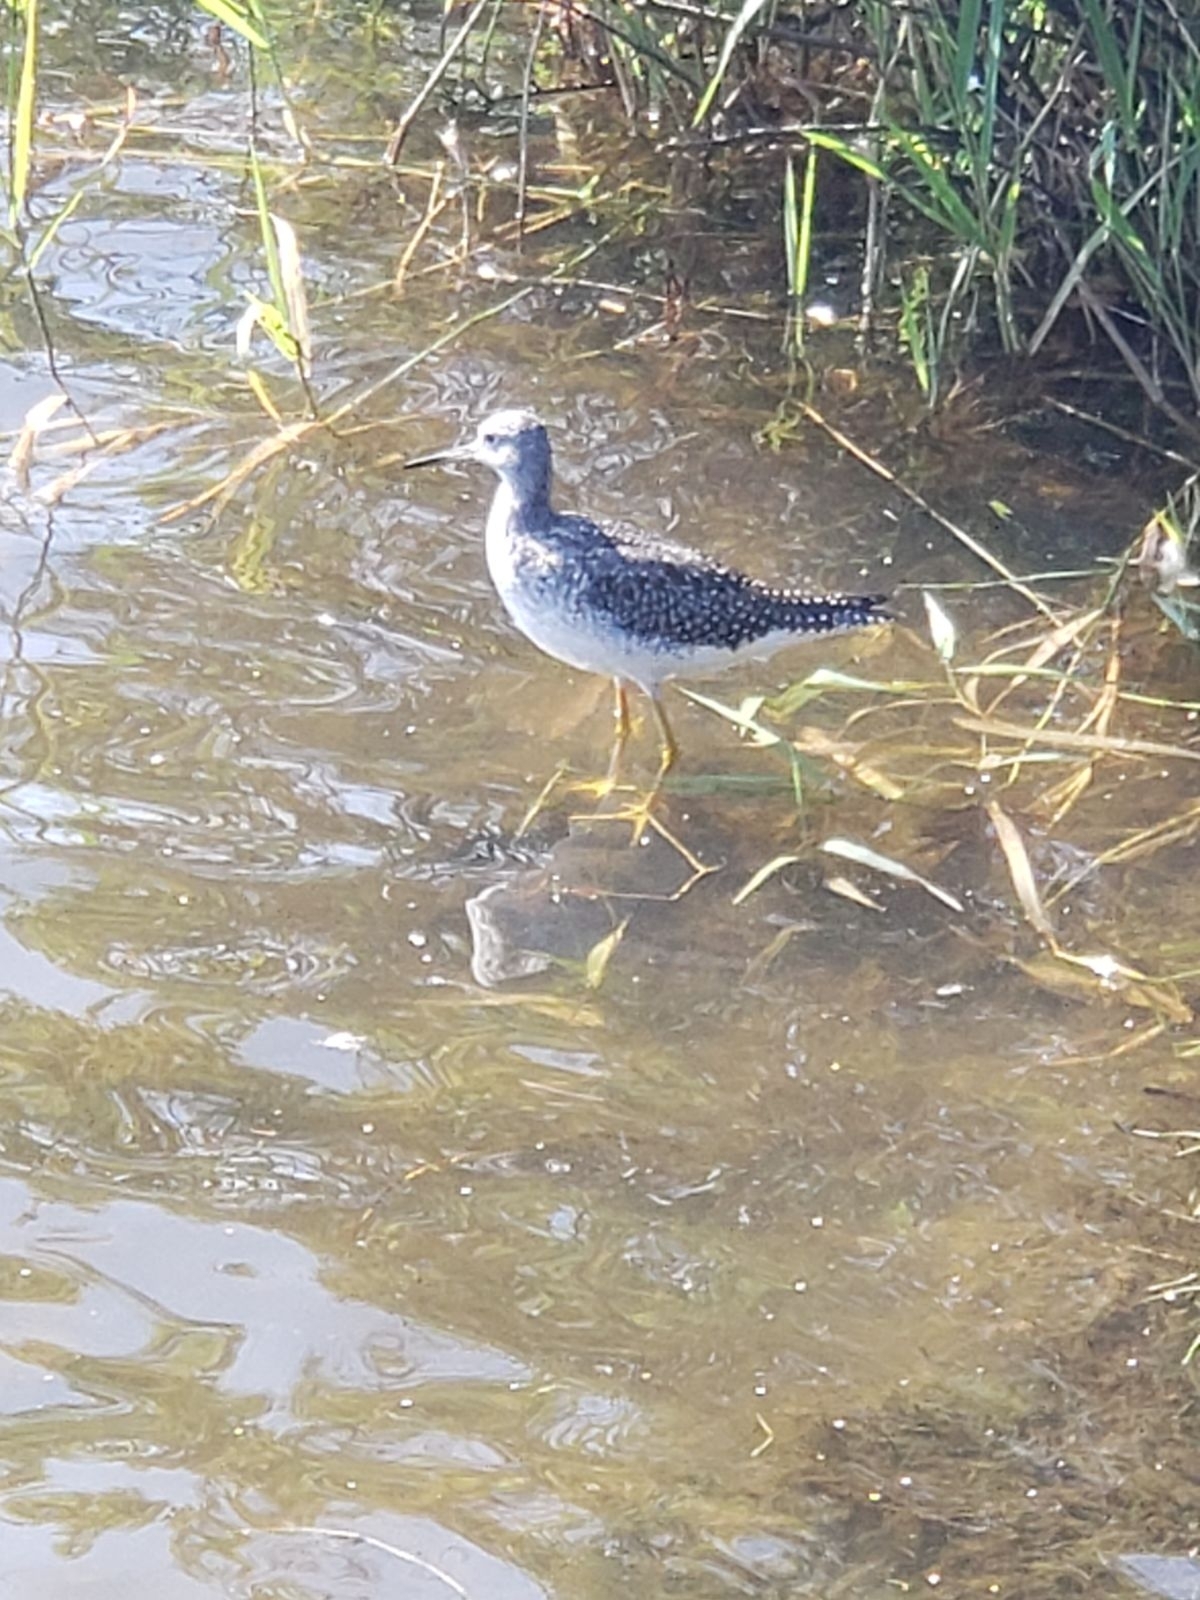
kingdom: Animalia
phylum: Chordata
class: Aves
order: Charadriiformes
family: Scolopacidae
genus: Tringa
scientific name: Tringa melanoleuca
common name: Greater yellowlegs
